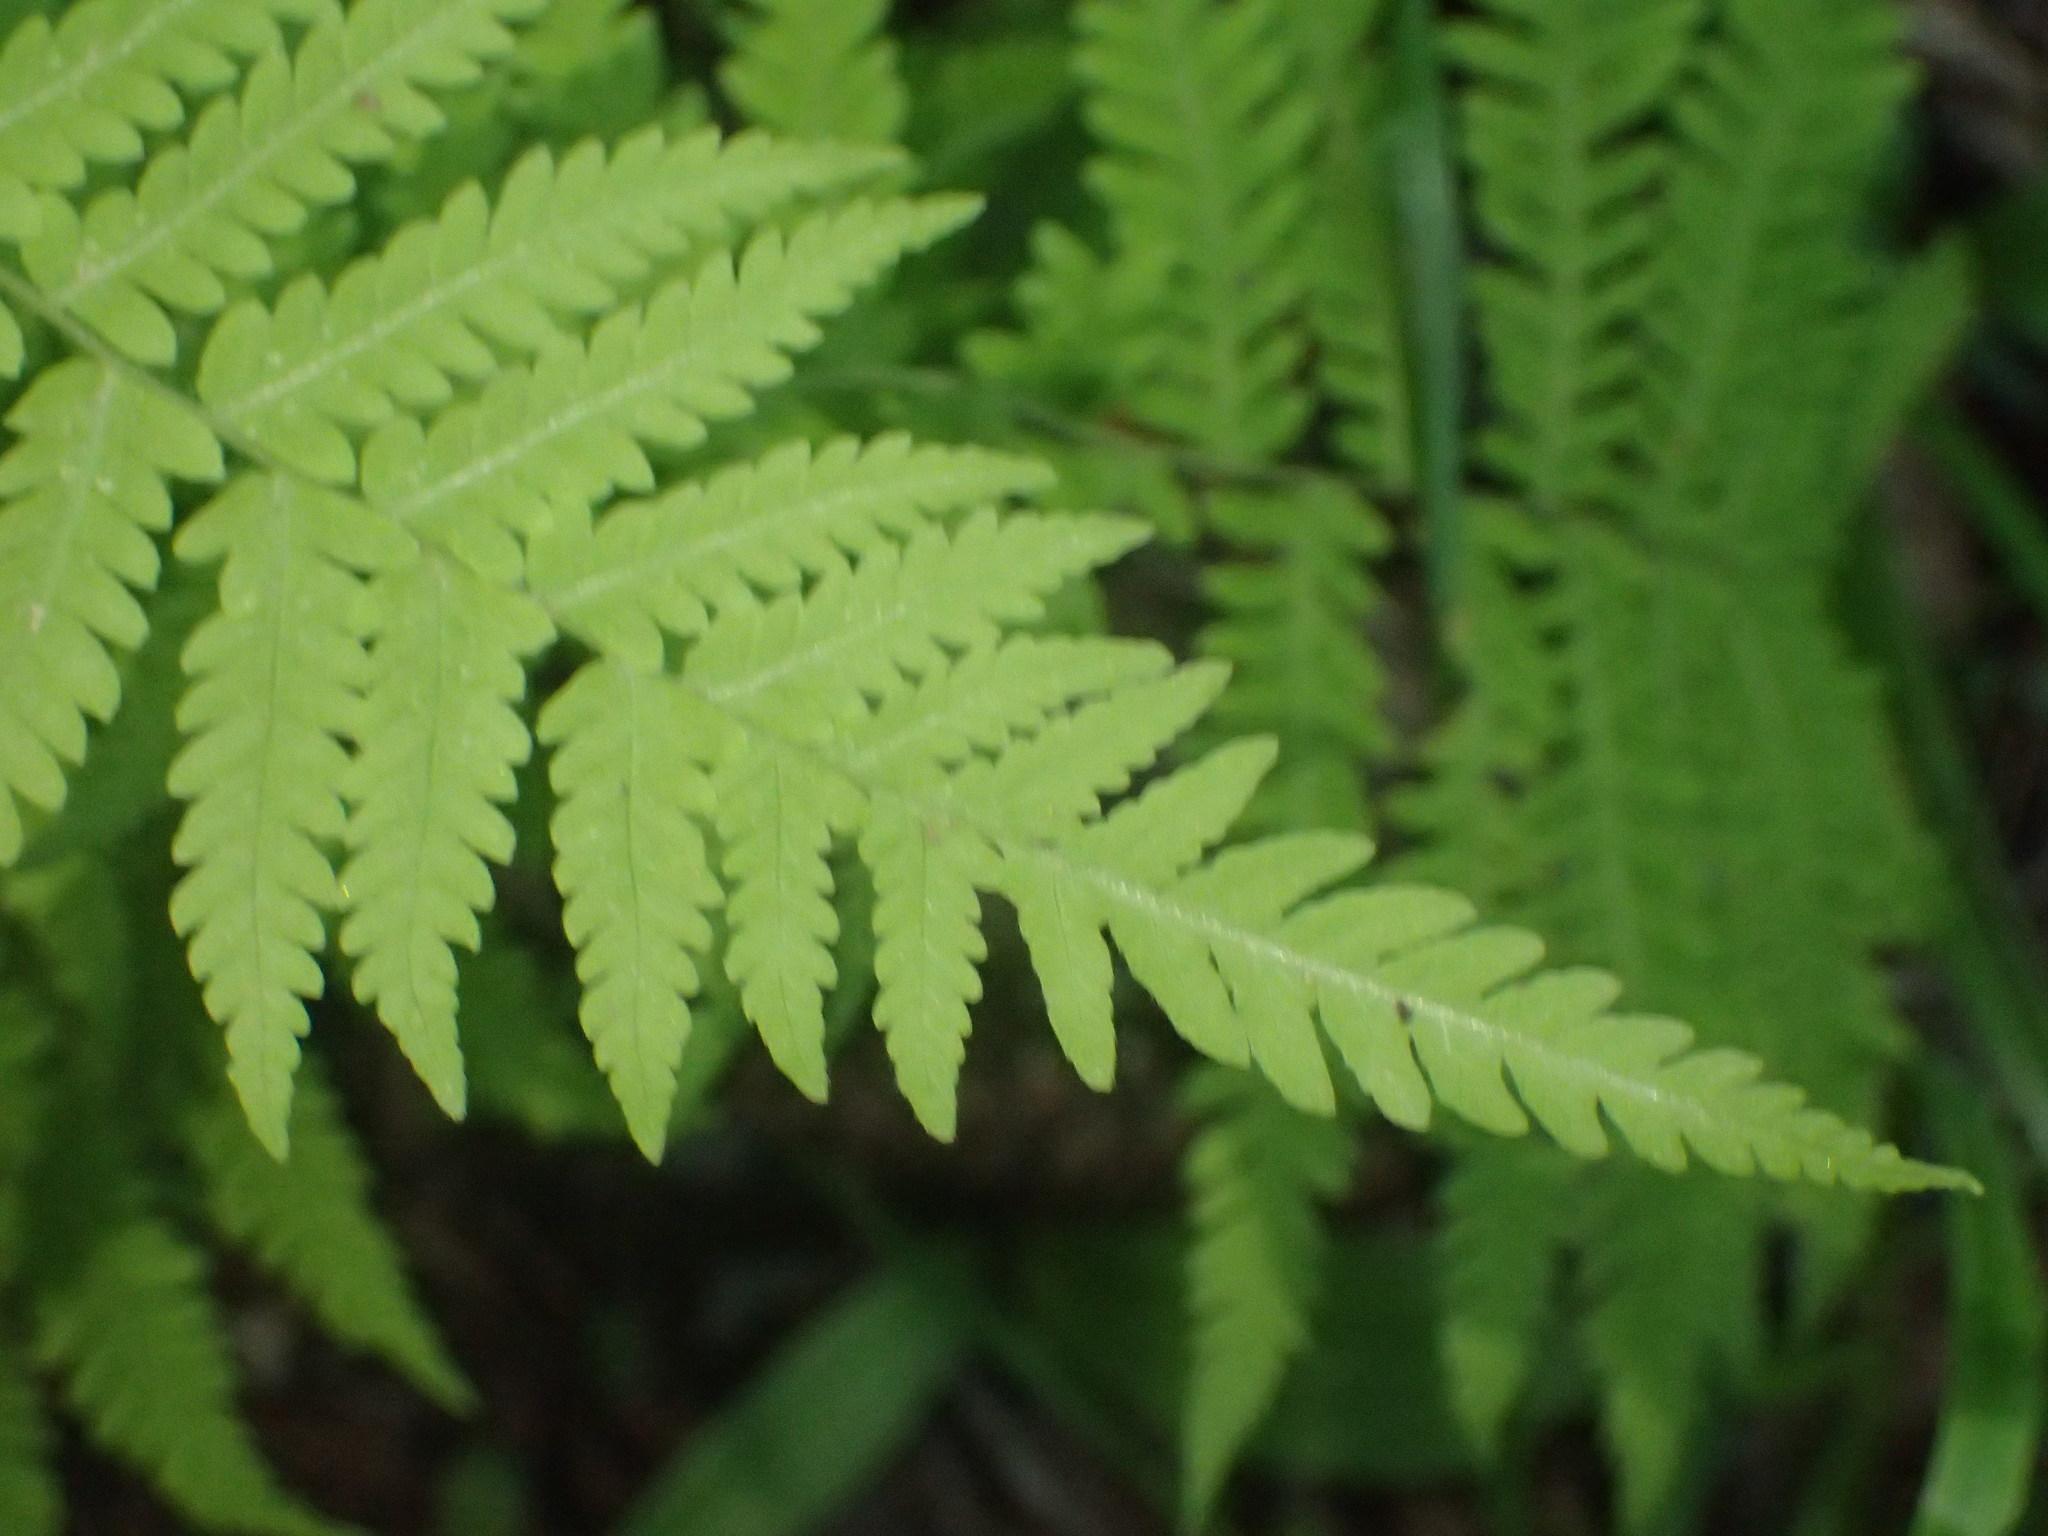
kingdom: Plantae
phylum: Tracheophyta
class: Polypodiopsida
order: Polypodiales
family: Thelypteridaceae
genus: Amauropelta
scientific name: Amauropelta noveboracensis
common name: New york fern
